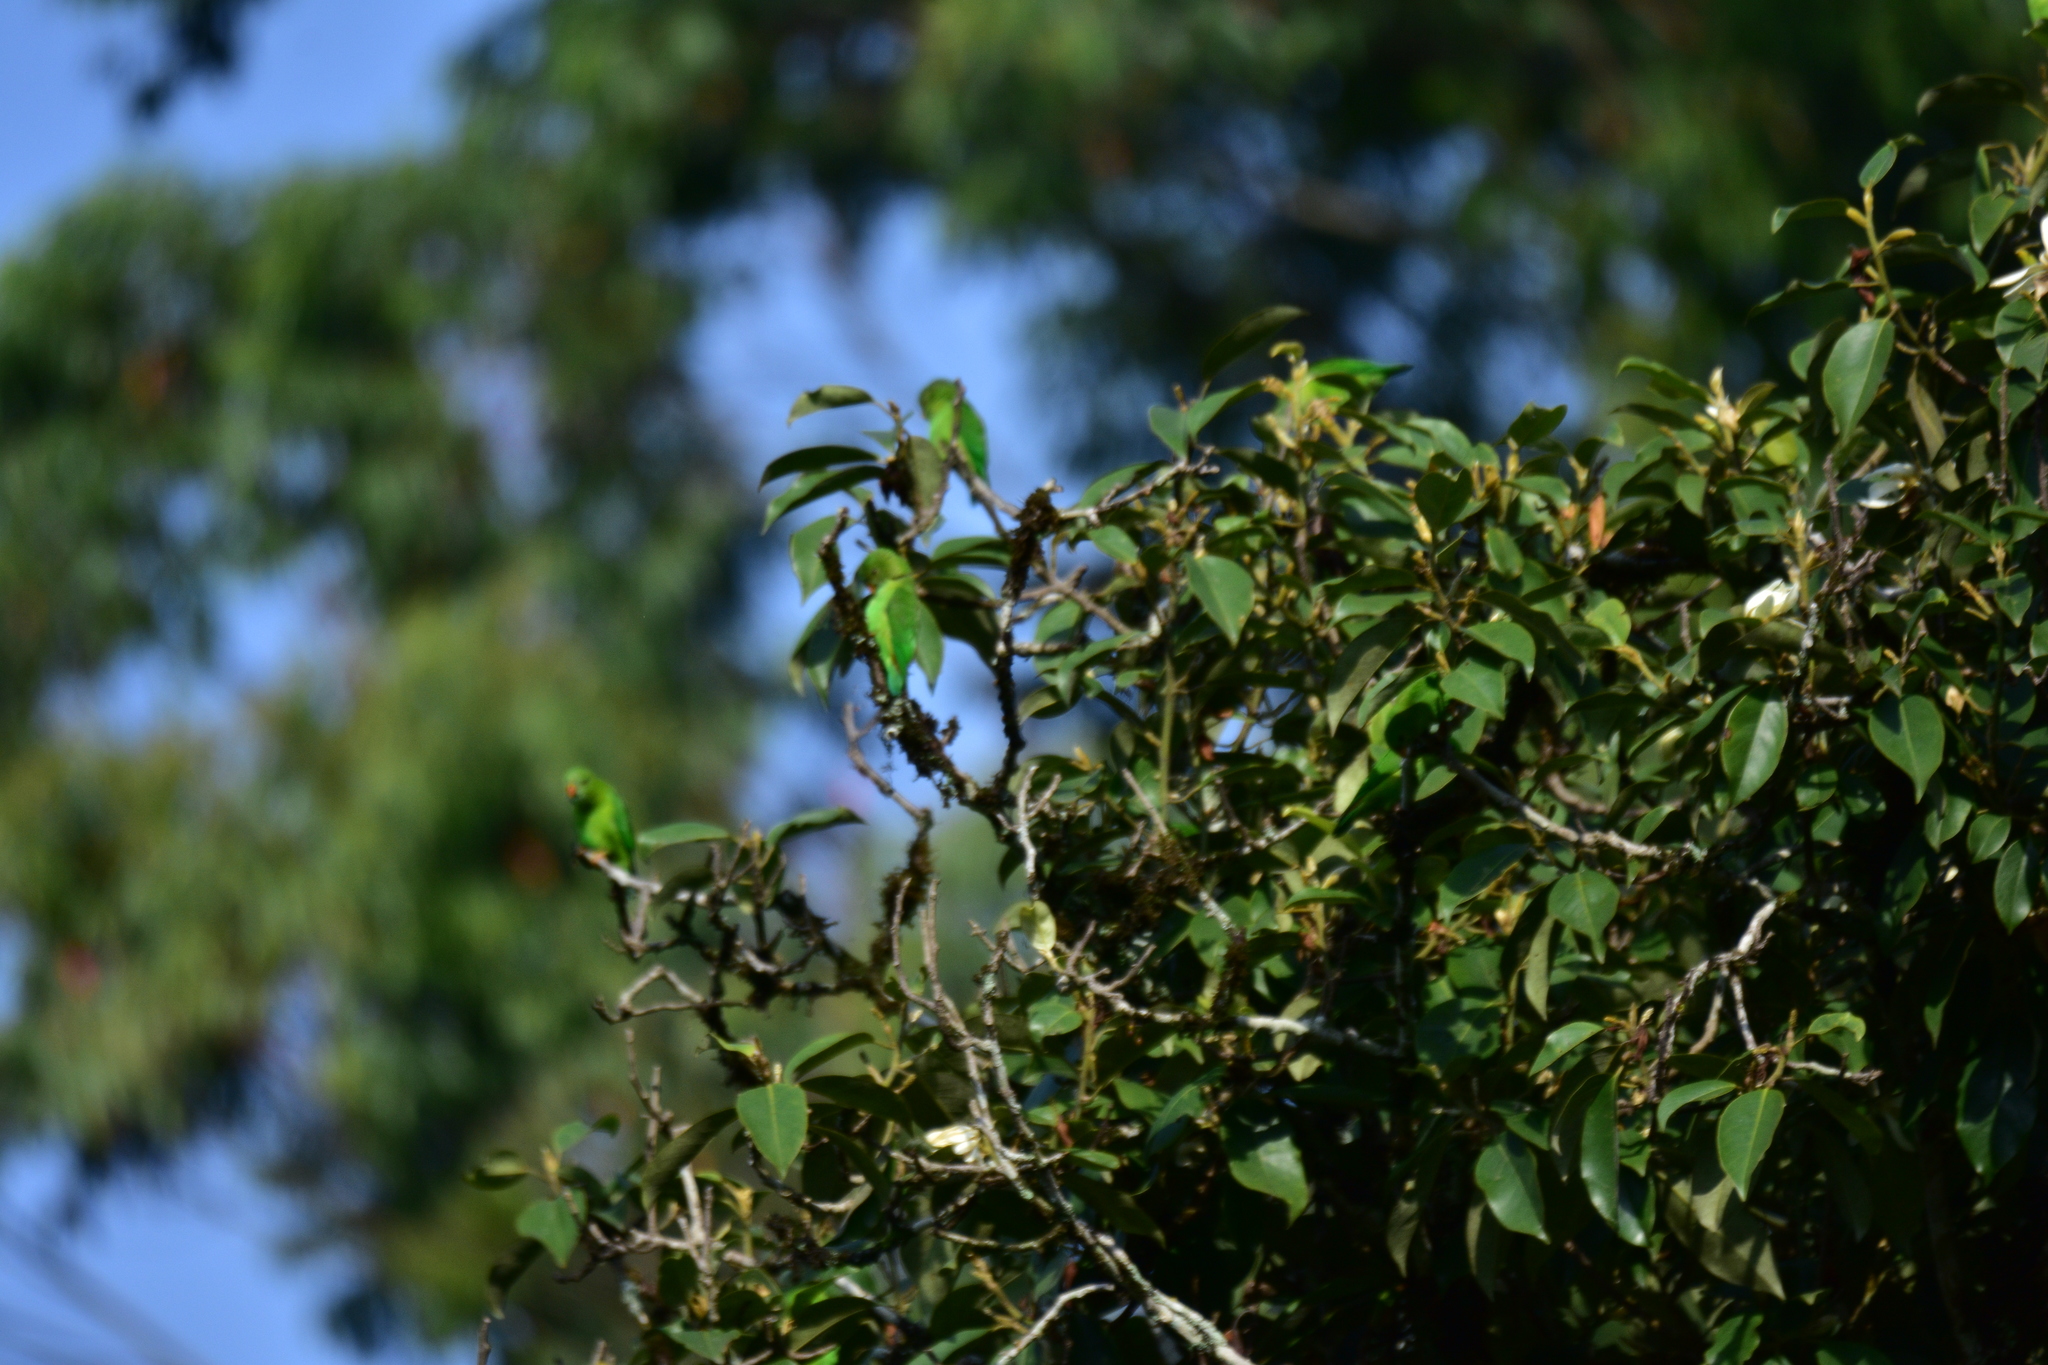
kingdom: Animalia
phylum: Chordata
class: Aves
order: Psittaciformes
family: Psittacidae
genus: Loriculus
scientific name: Loriculus vernalis
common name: Vernal hanging parrot
